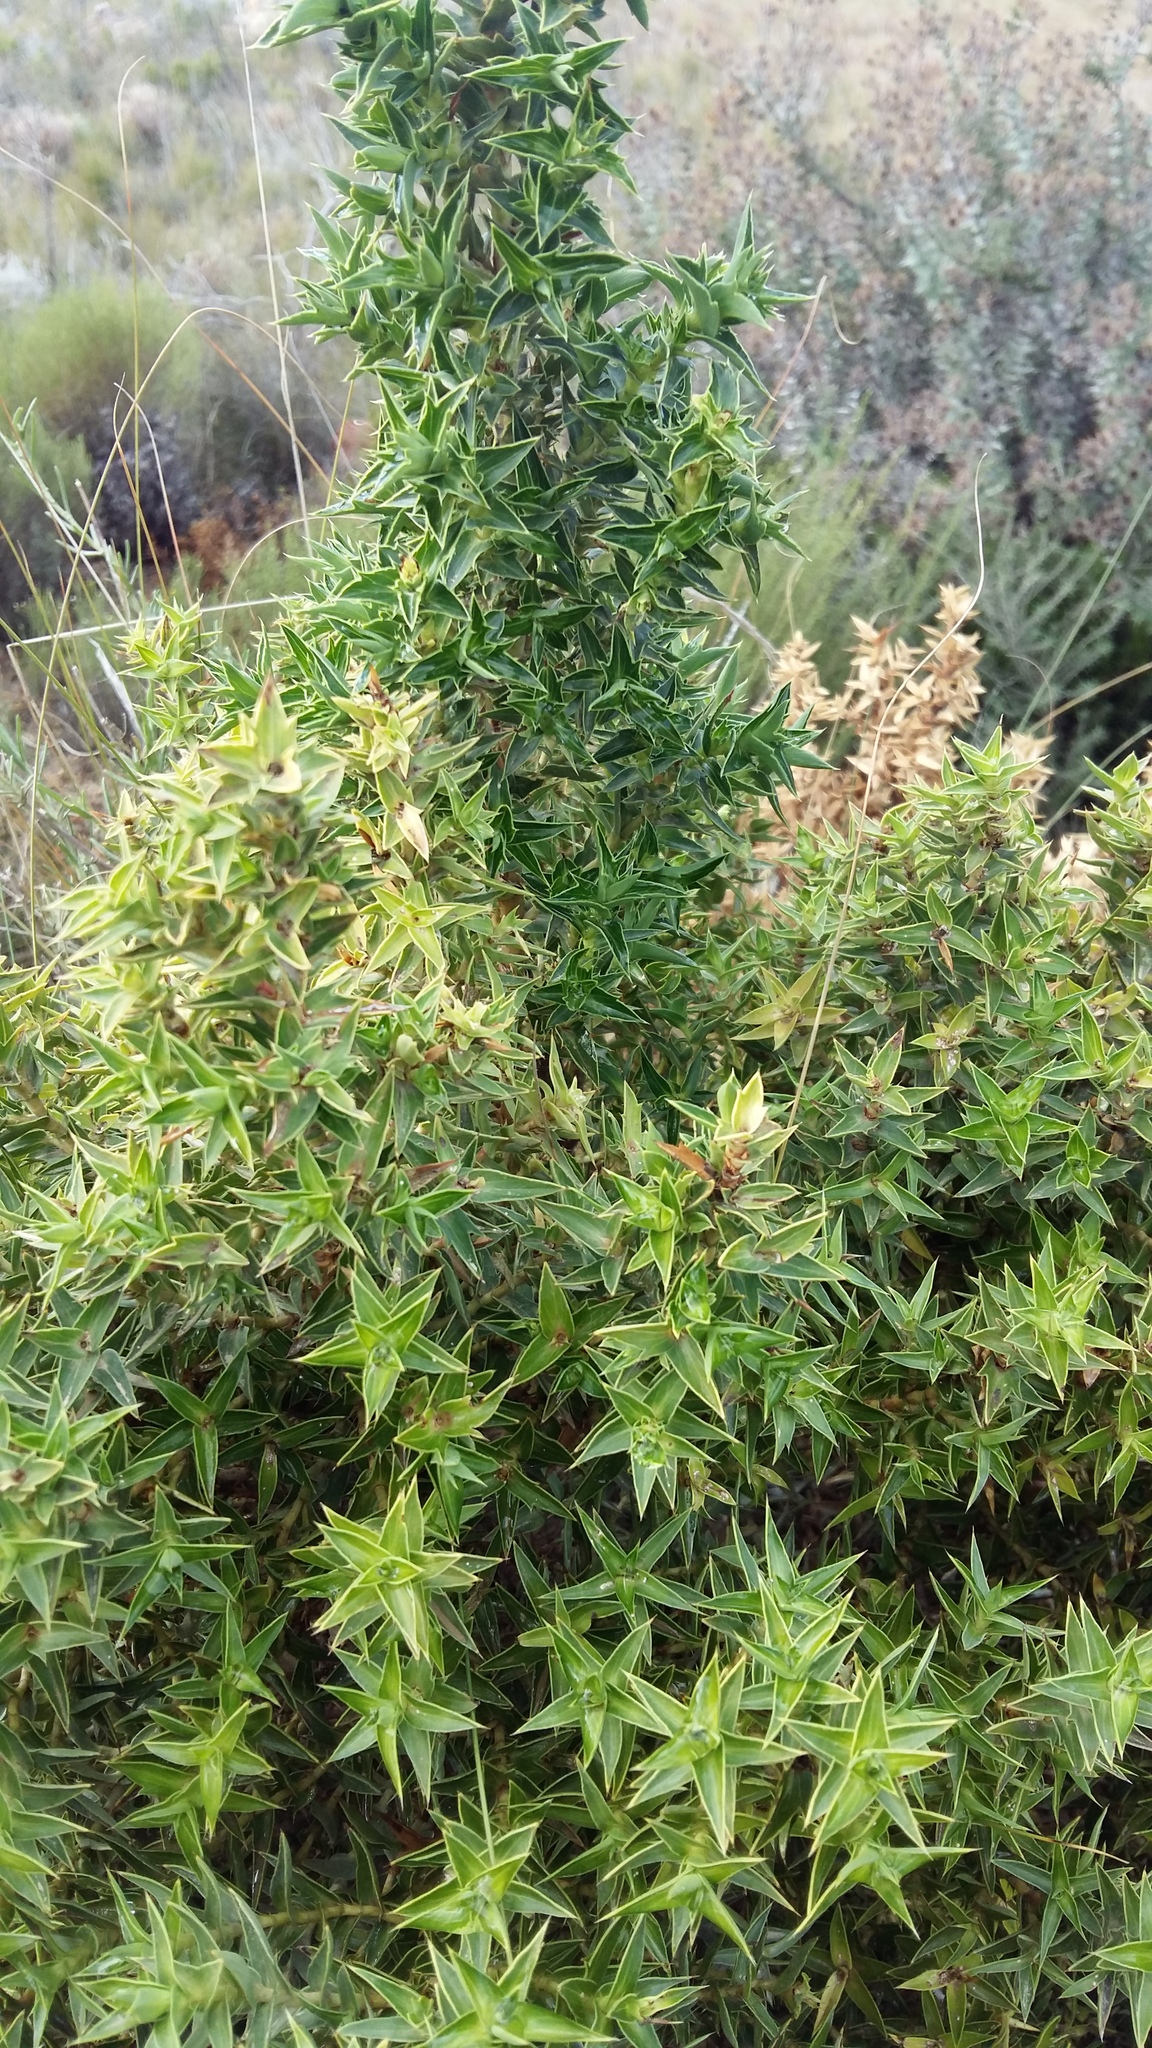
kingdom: Plantae
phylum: Tracheophyta
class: Magnoliopsida
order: Rosales
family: Rosaceae
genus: Cliffortia
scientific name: Cliffortia ilicifolia
